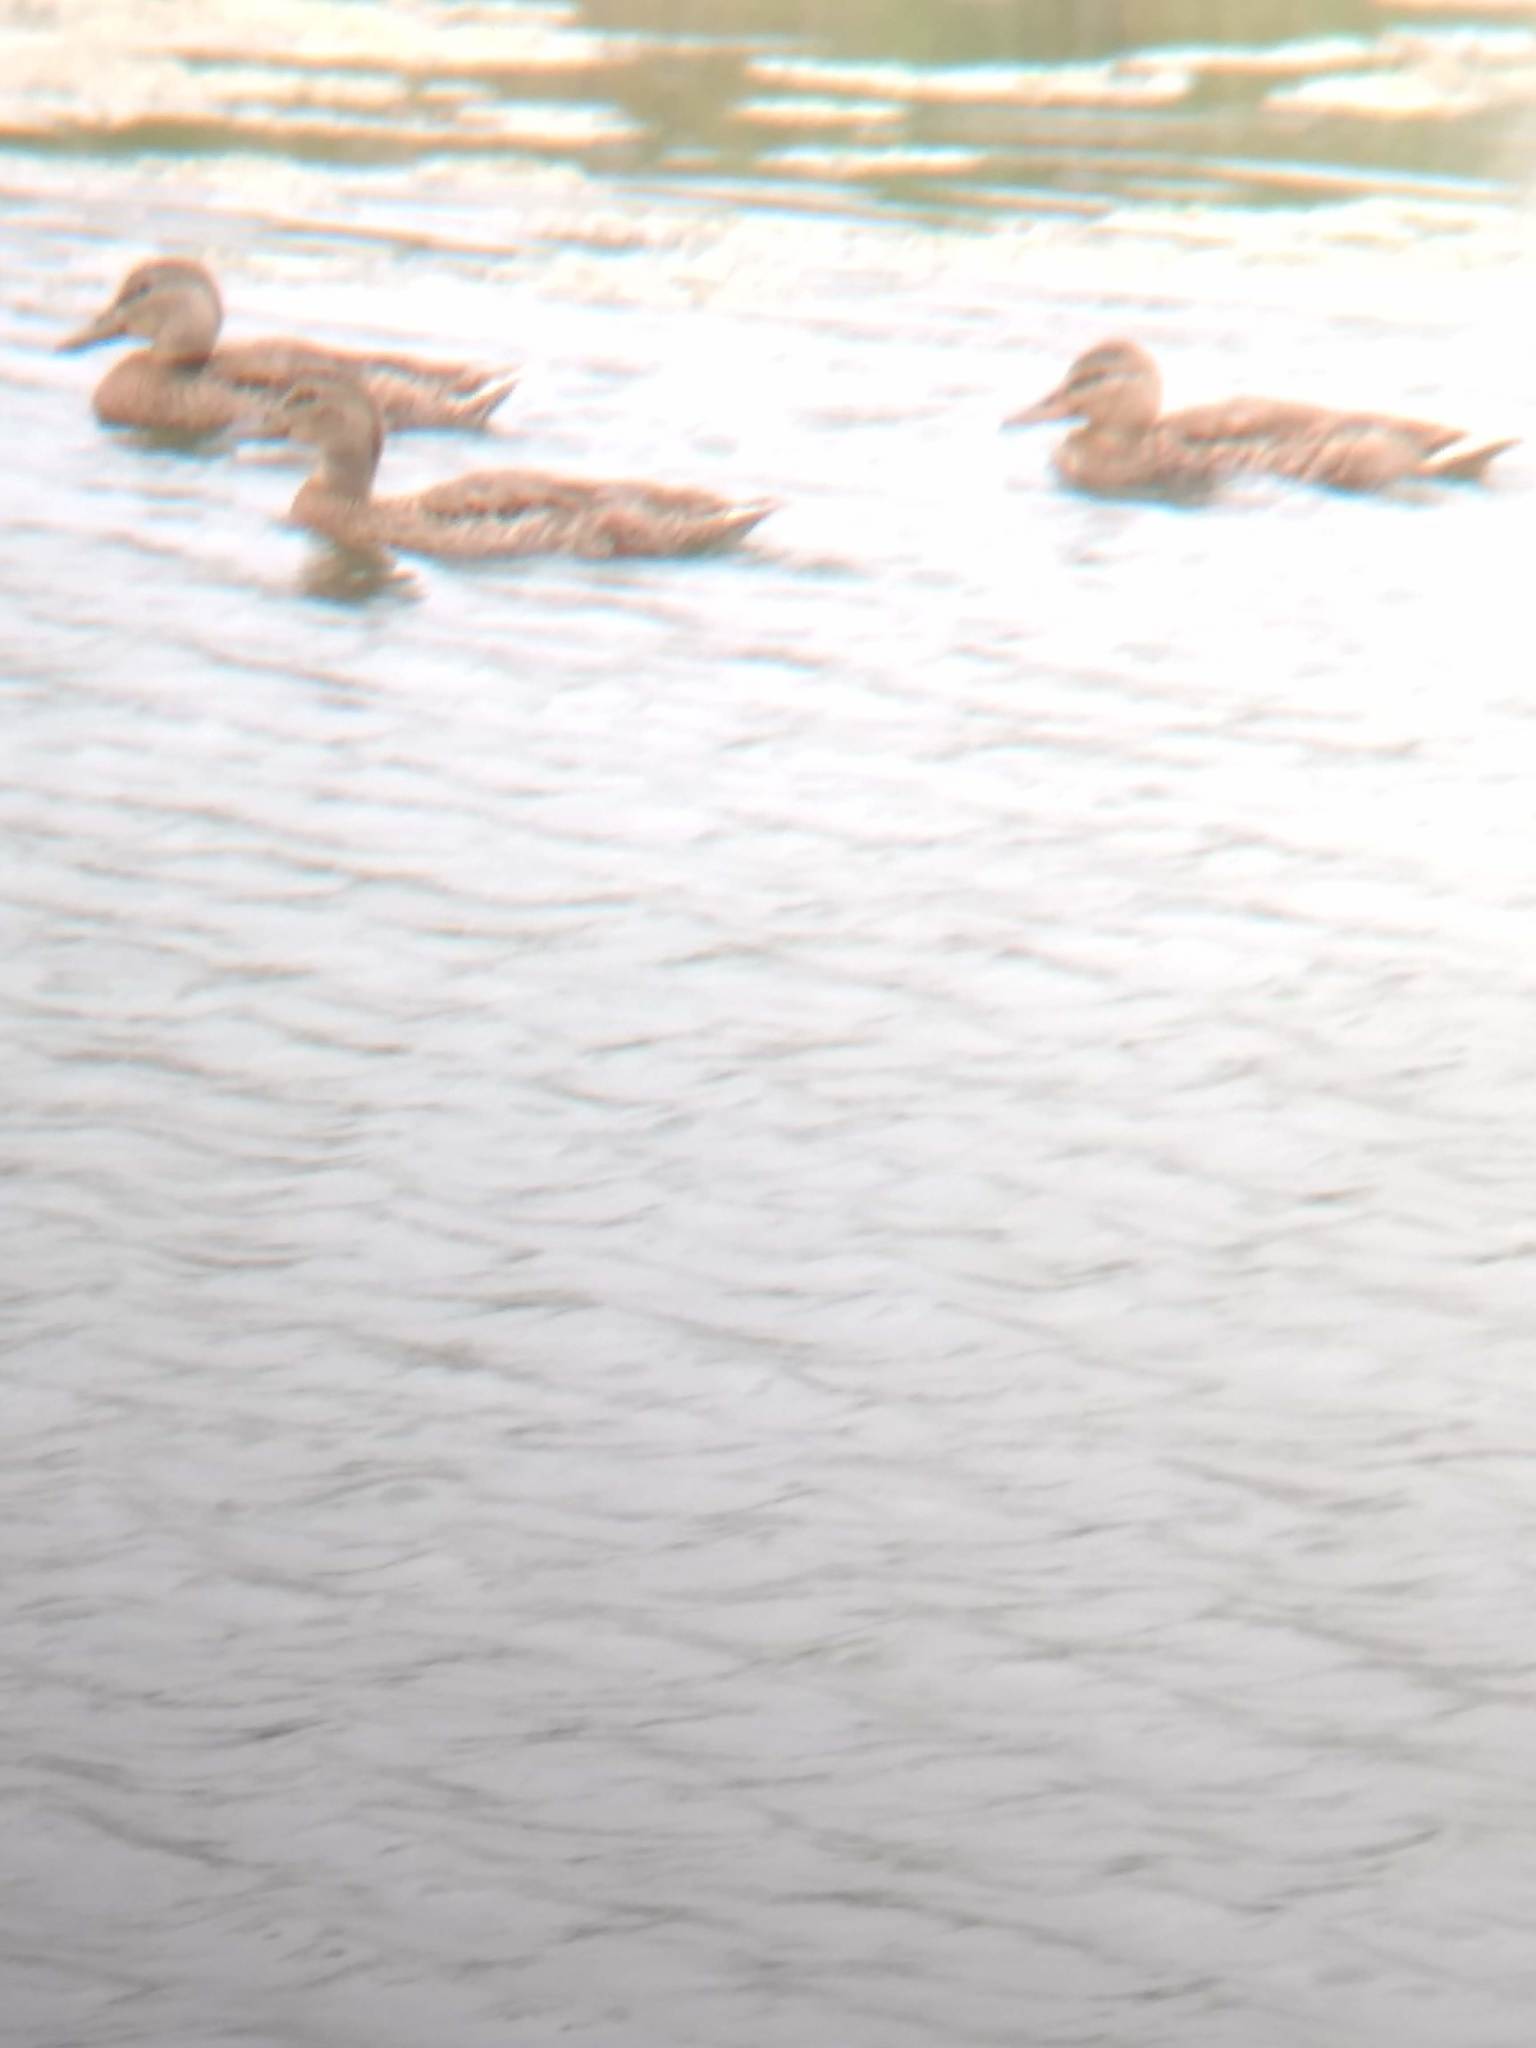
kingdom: Animalia
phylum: Chordata
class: Aves
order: Anseriformes
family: Anatidae
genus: Anas
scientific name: Anas platyrhynchos
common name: Mallard
